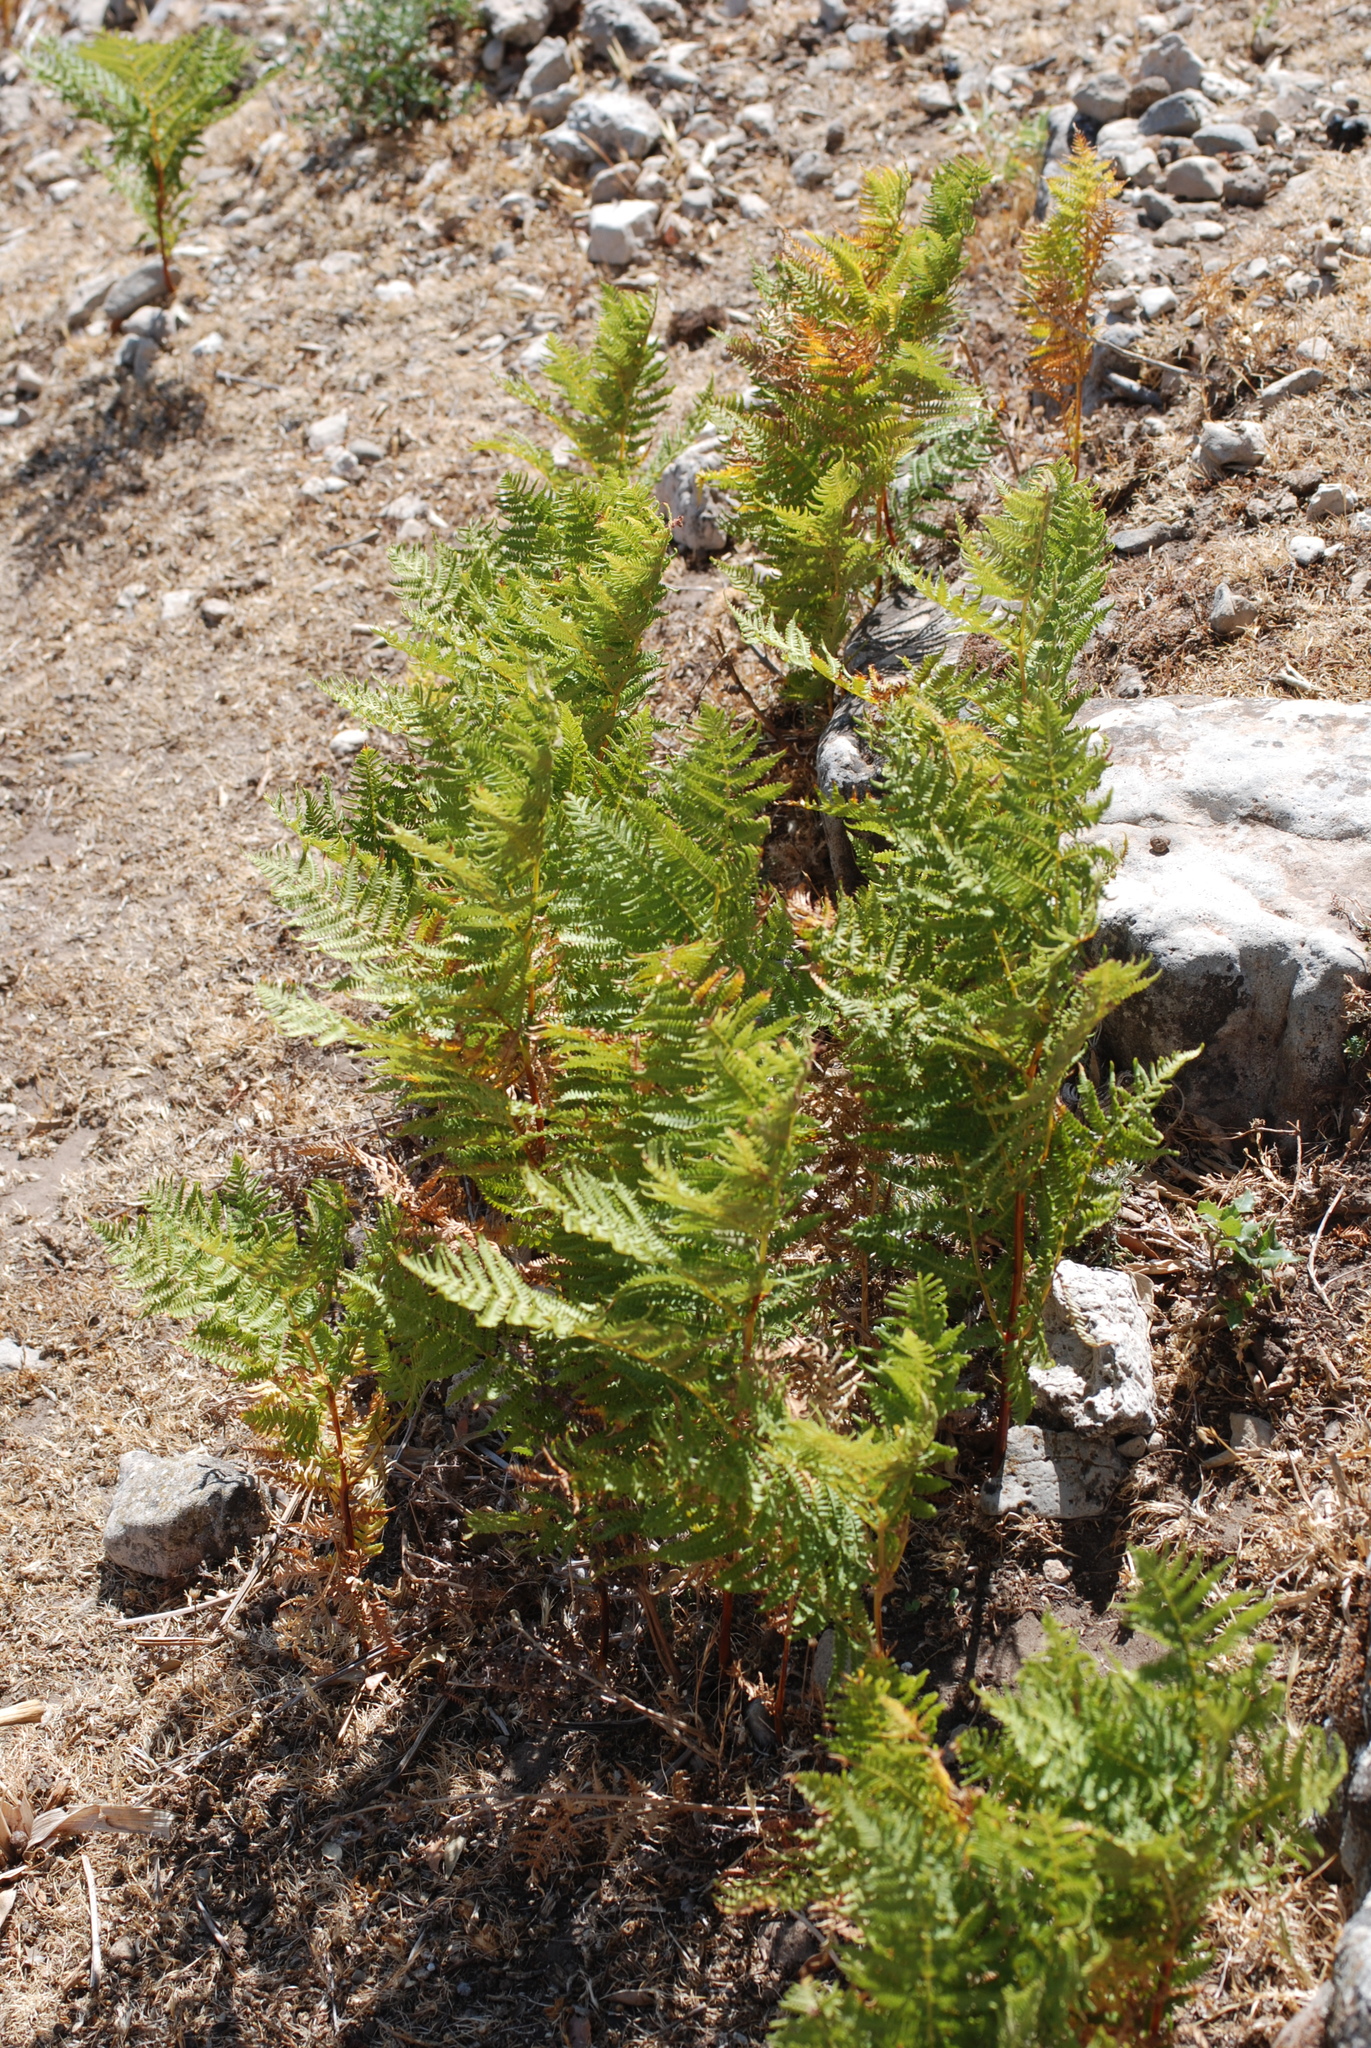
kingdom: Plantae
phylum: Tracheophyta
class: Polypodiopsida
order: Polypodiales
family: Dennstaedtiaceae
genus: Pteridium
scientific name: Pteridium aquilinum
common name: Bracken
